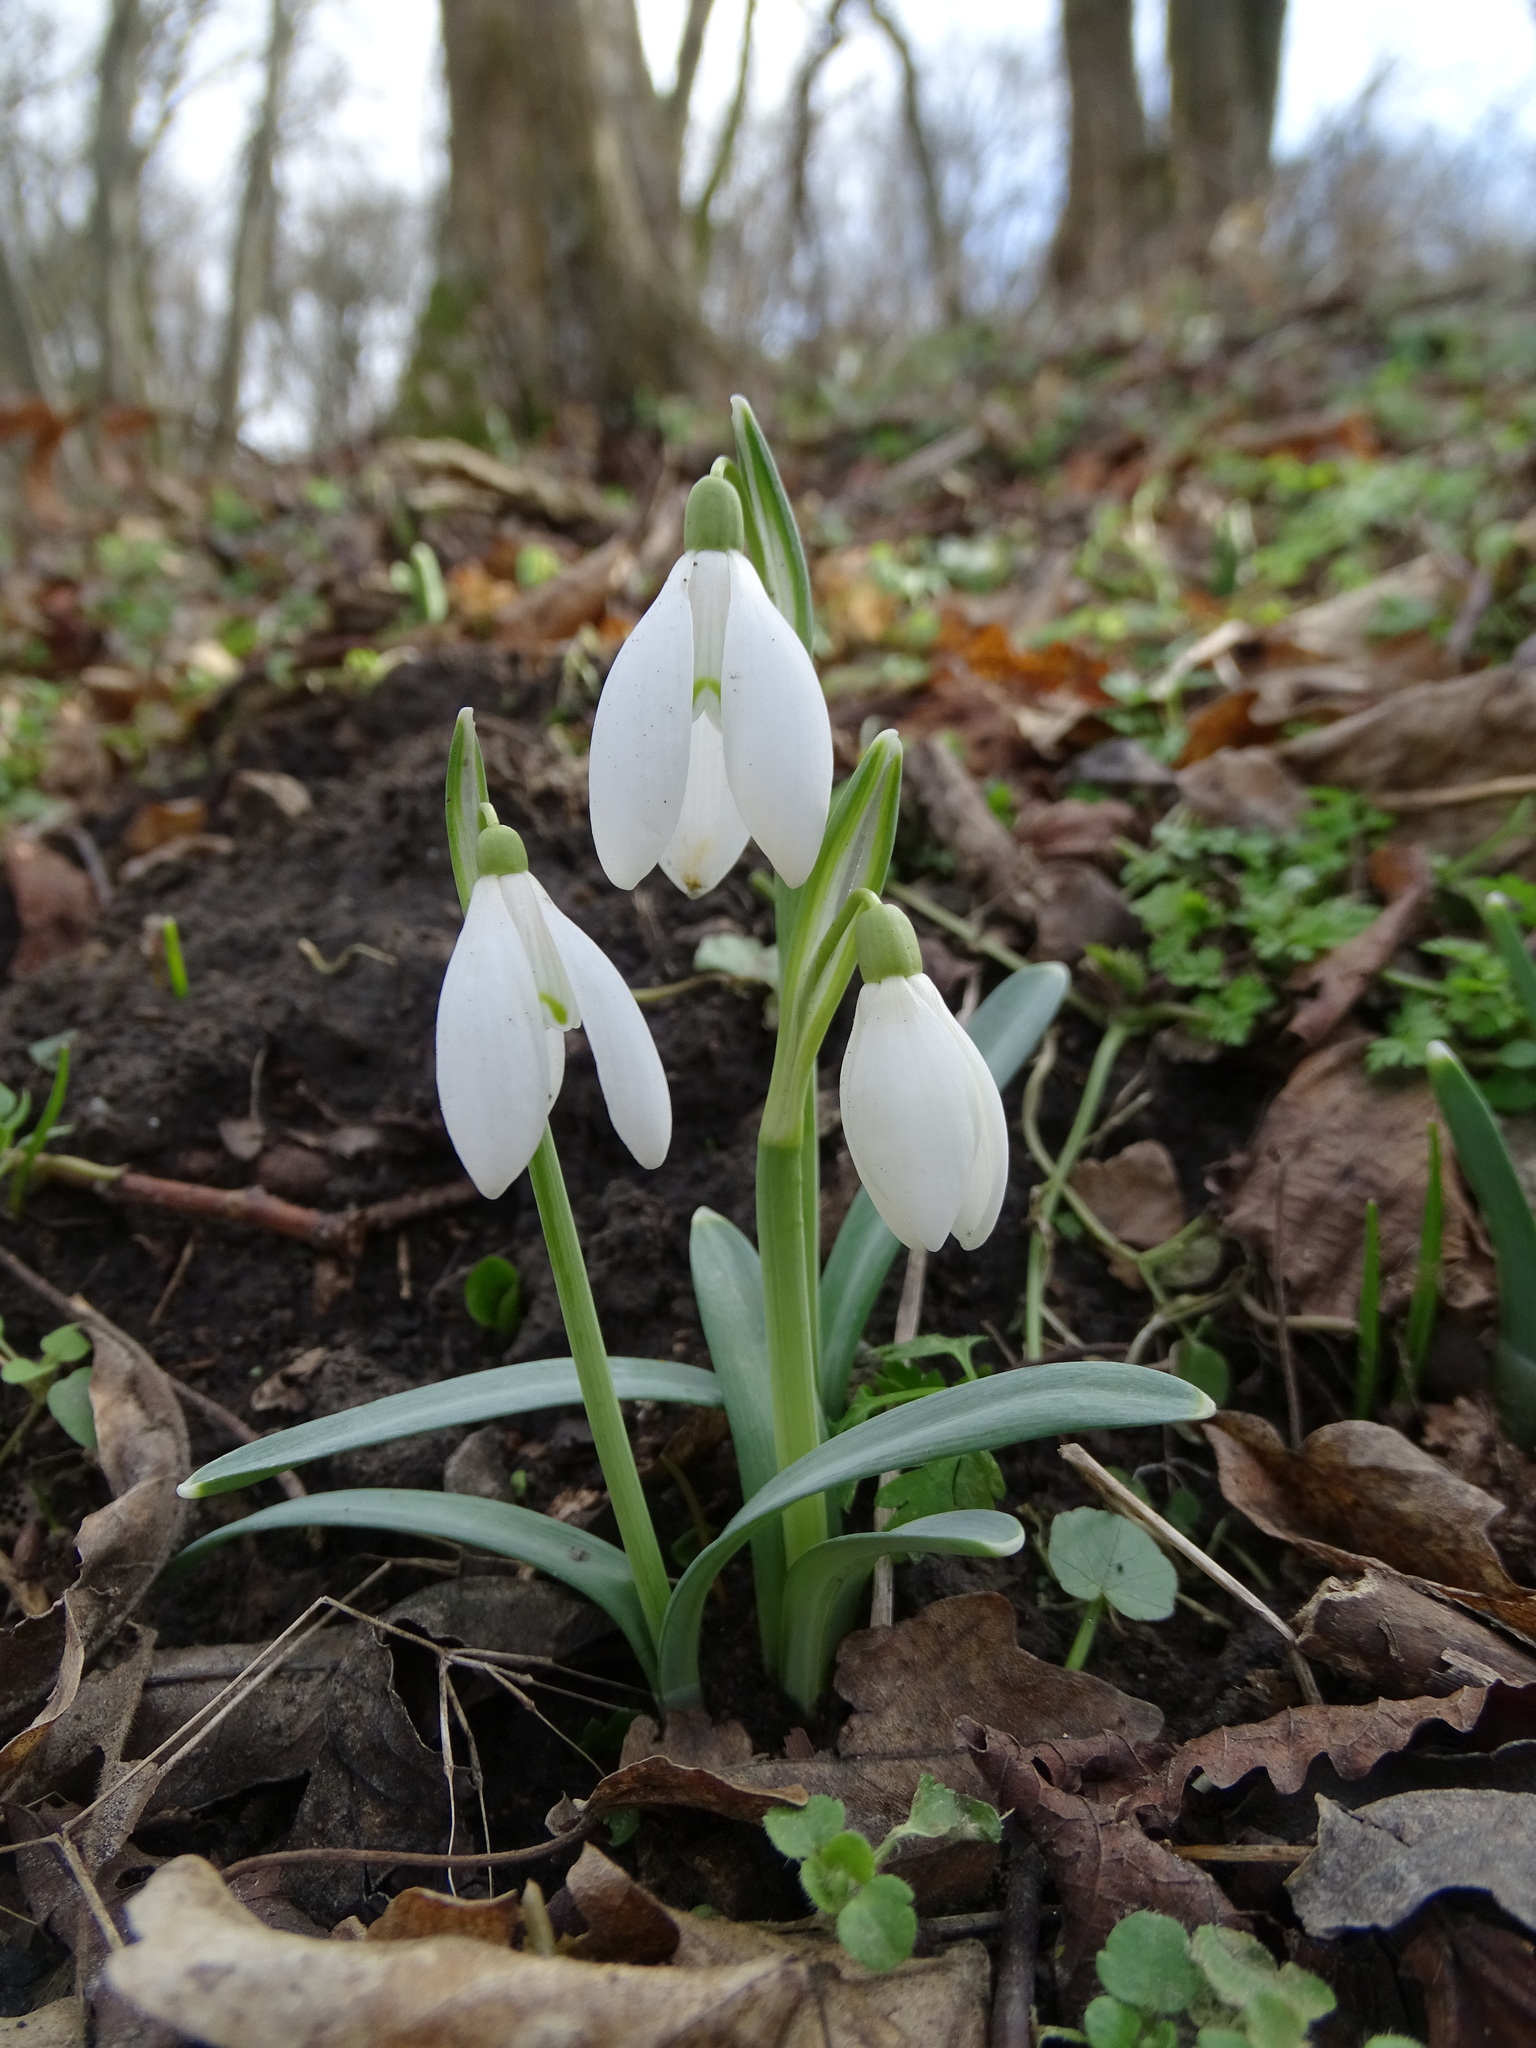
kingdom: Plantae
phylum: Tracheophyta
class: Liliopsida
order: Asparagales
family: Amaryllidaceae
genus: Galanthus
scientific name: Galanthus nivalis
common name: Snowdrop
